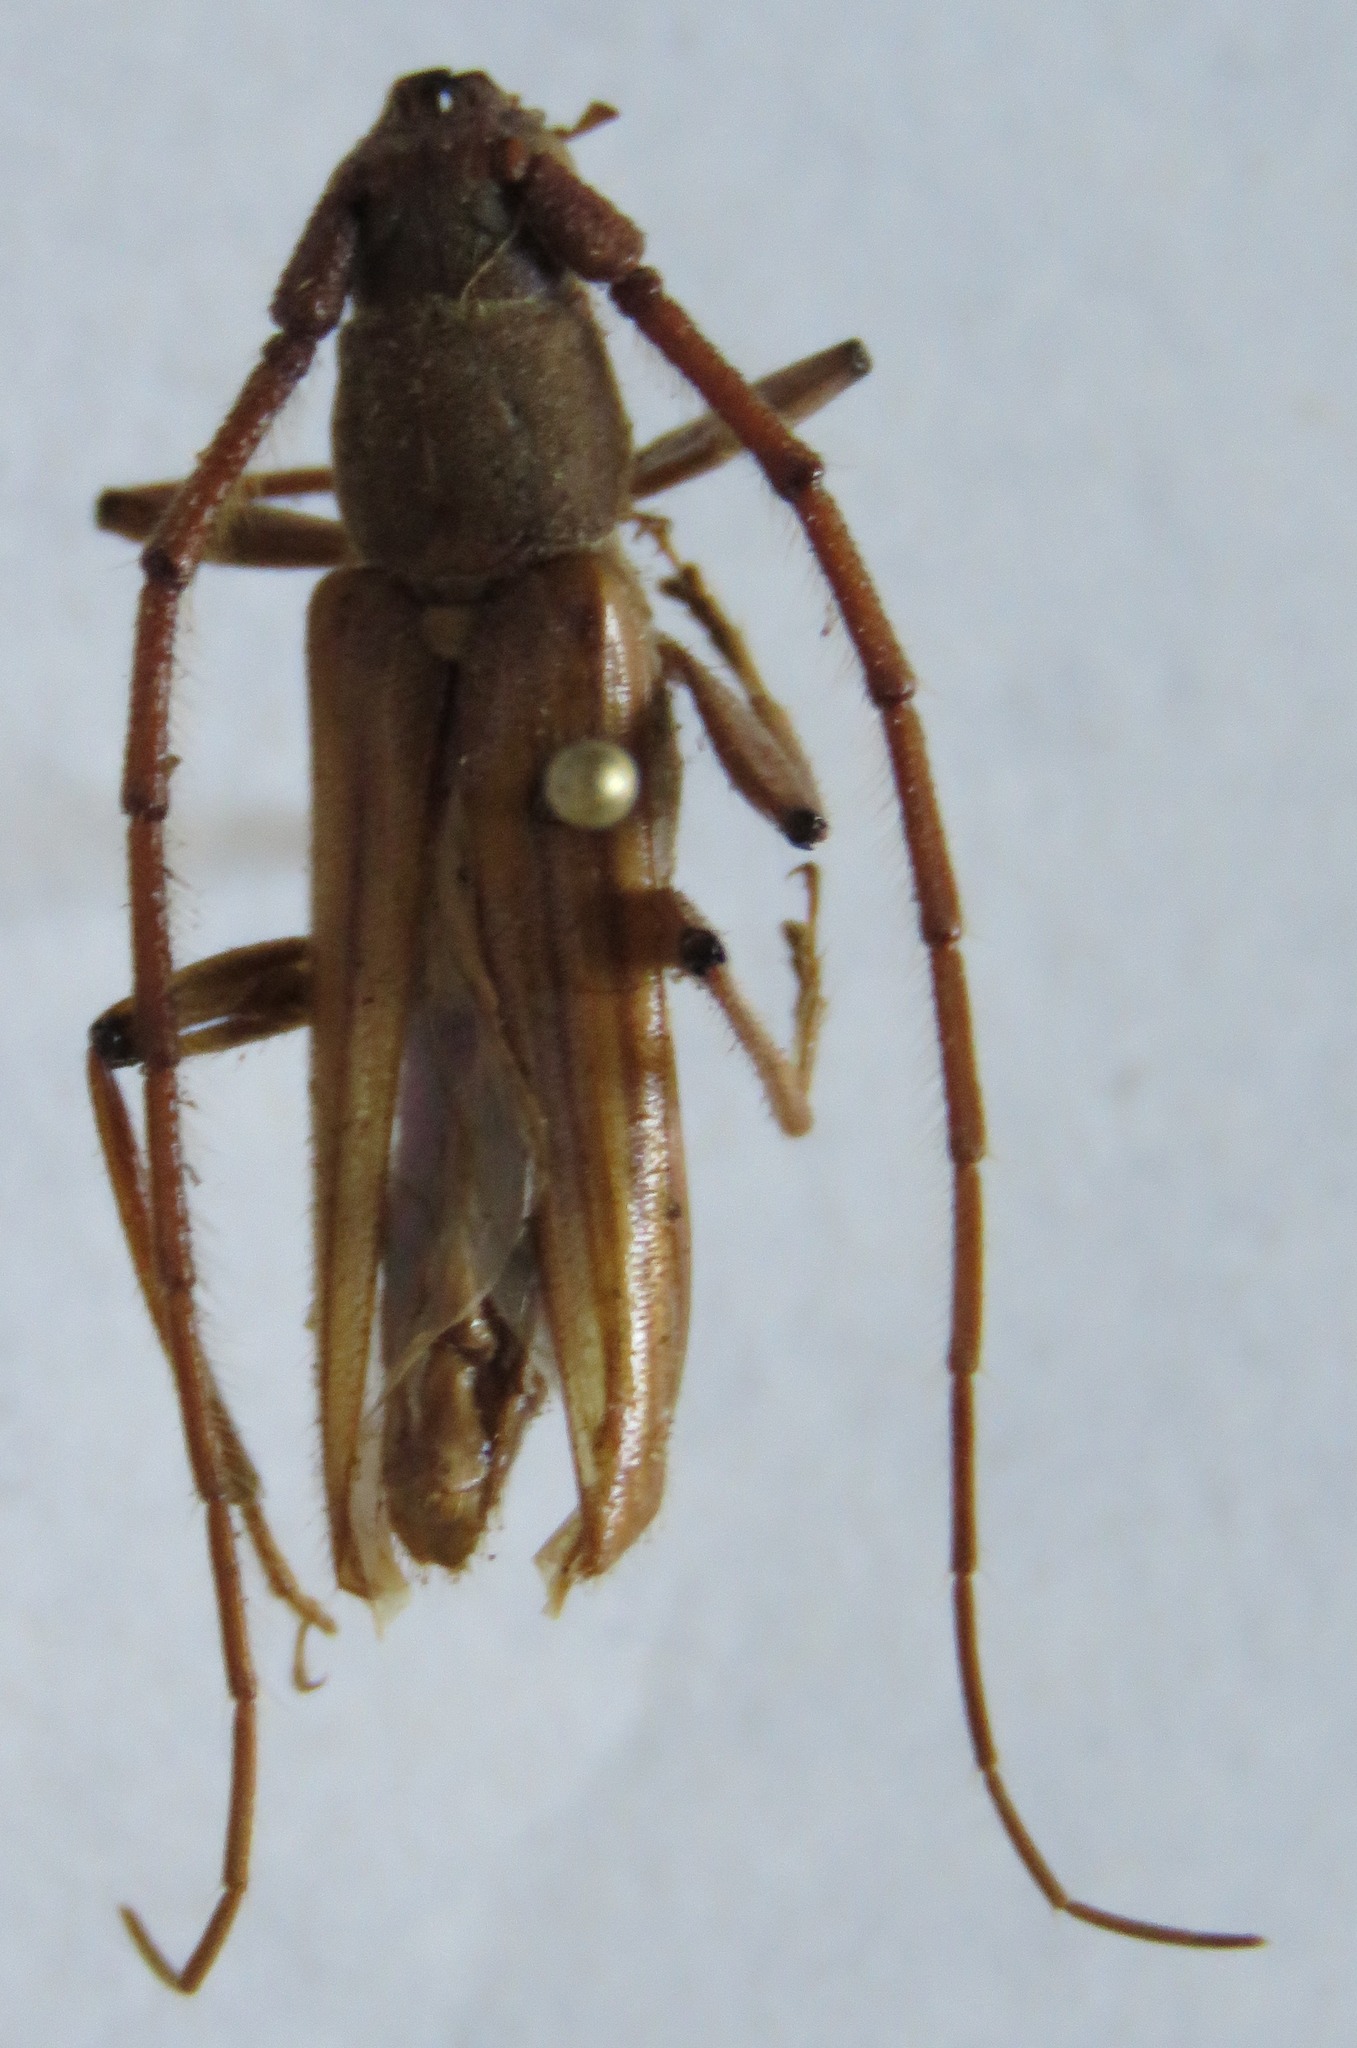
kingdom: Animalia
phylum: Arthropoda
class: Insecta
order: Coleoptera
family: Cerambycidae
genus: Malacopterus
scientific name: Malacopterus tenellus
